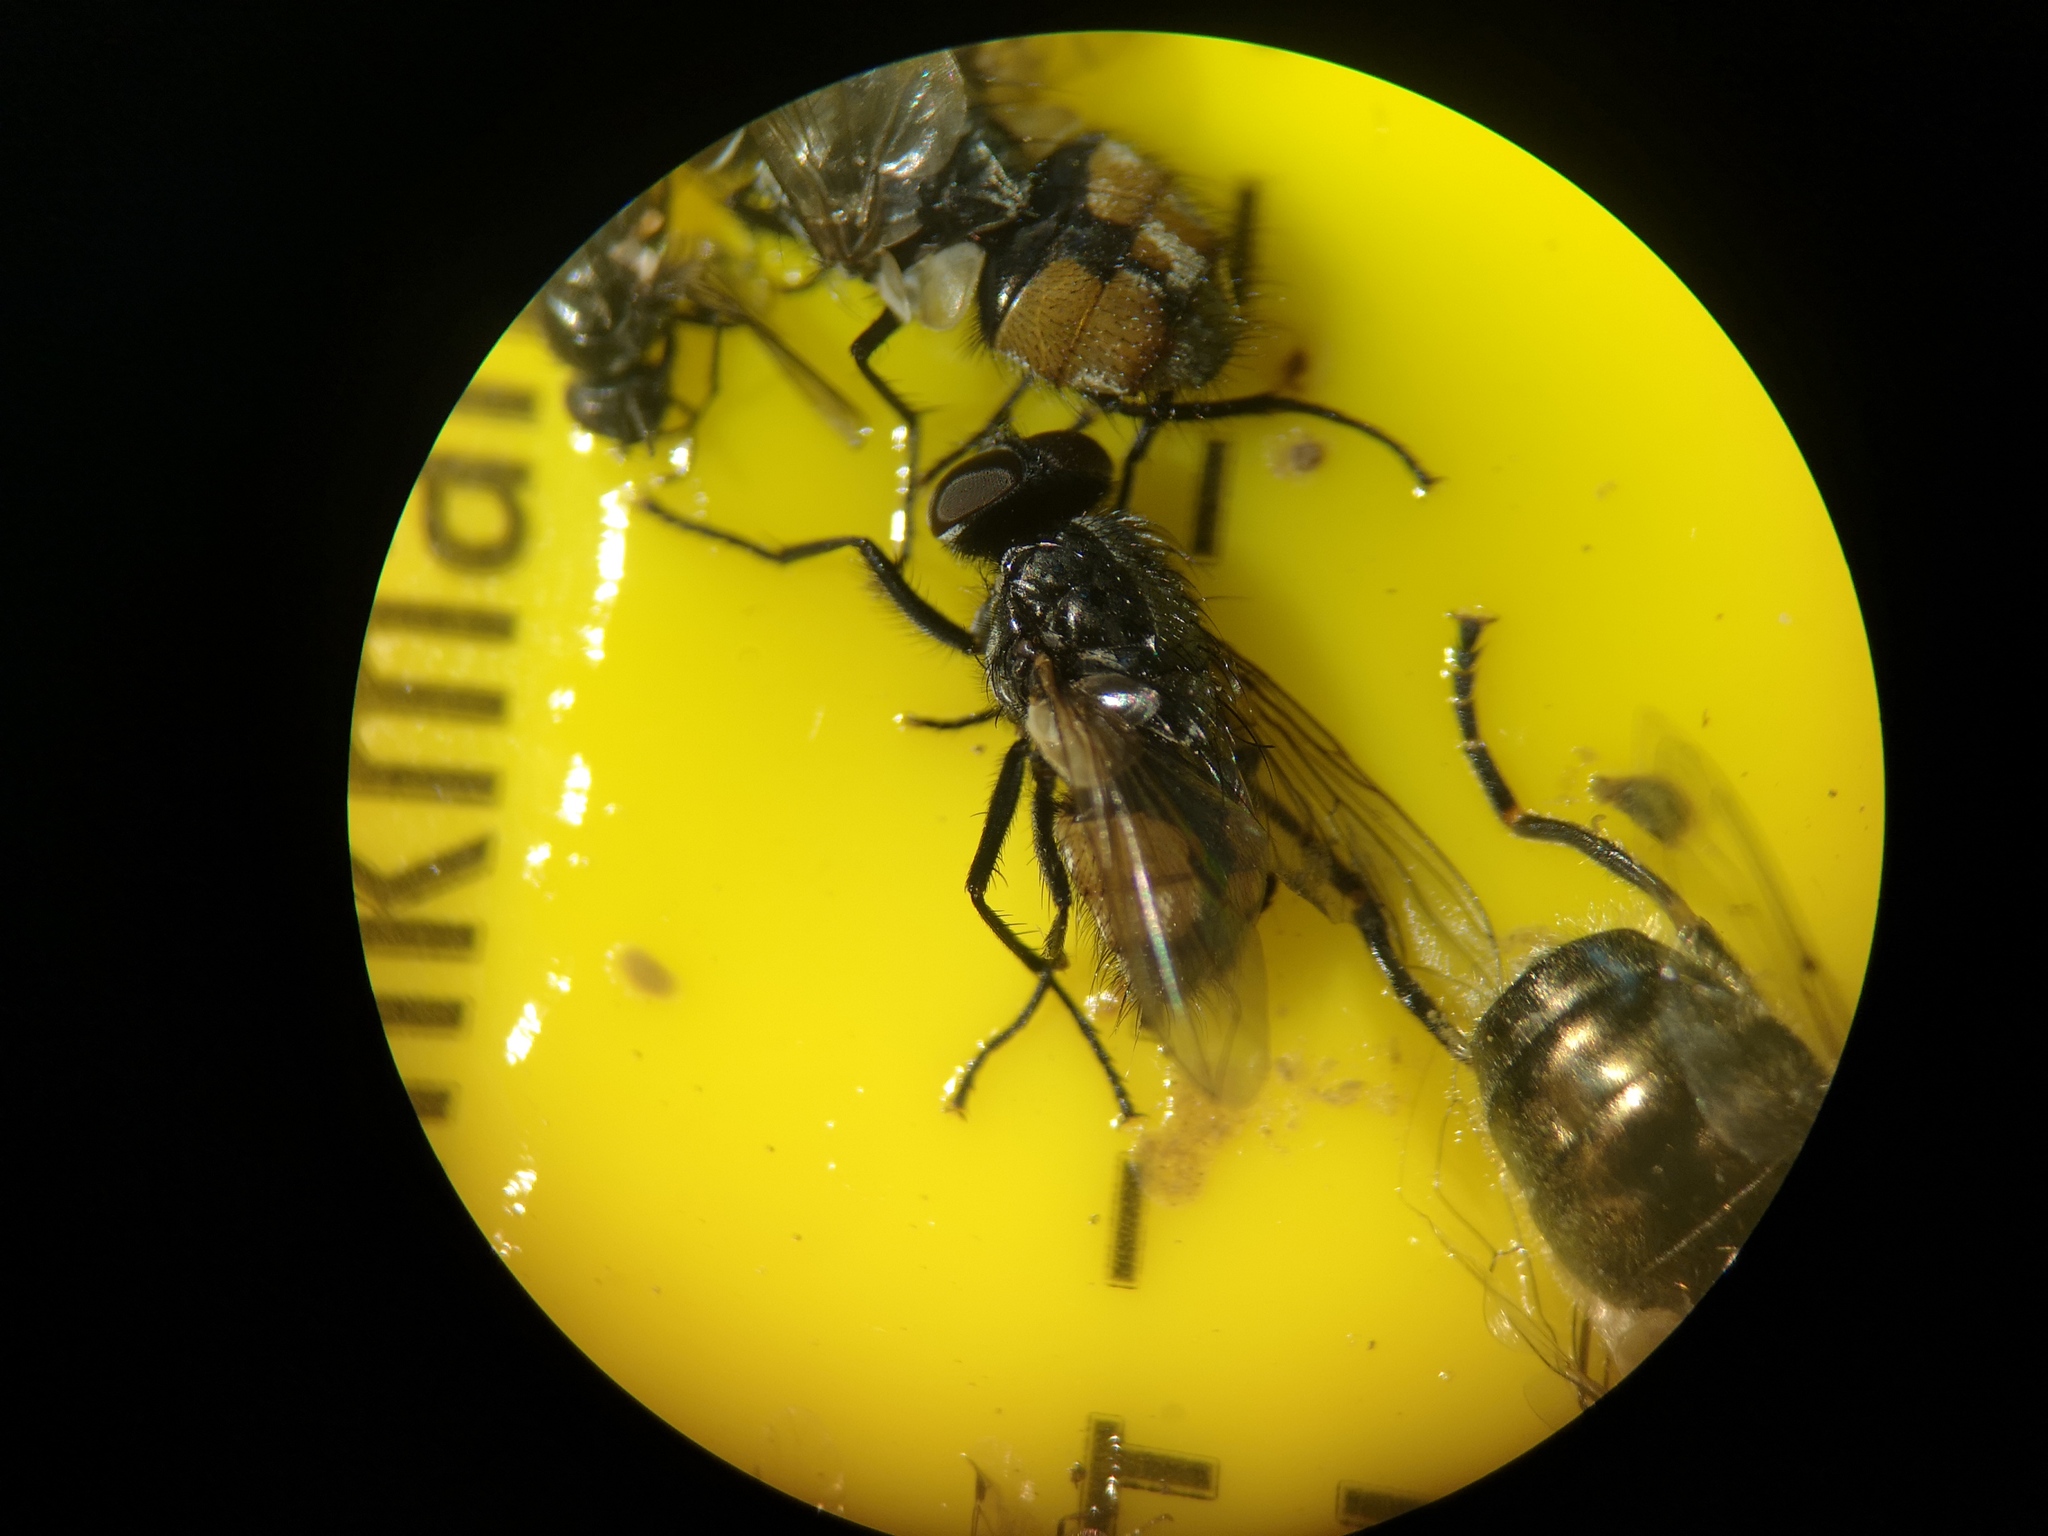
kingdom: Animalia
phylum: Arthropoda
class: Insecta
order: Diptera
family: Muscidae
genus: Musca
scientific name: Musca autumnalis
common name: Face fly
